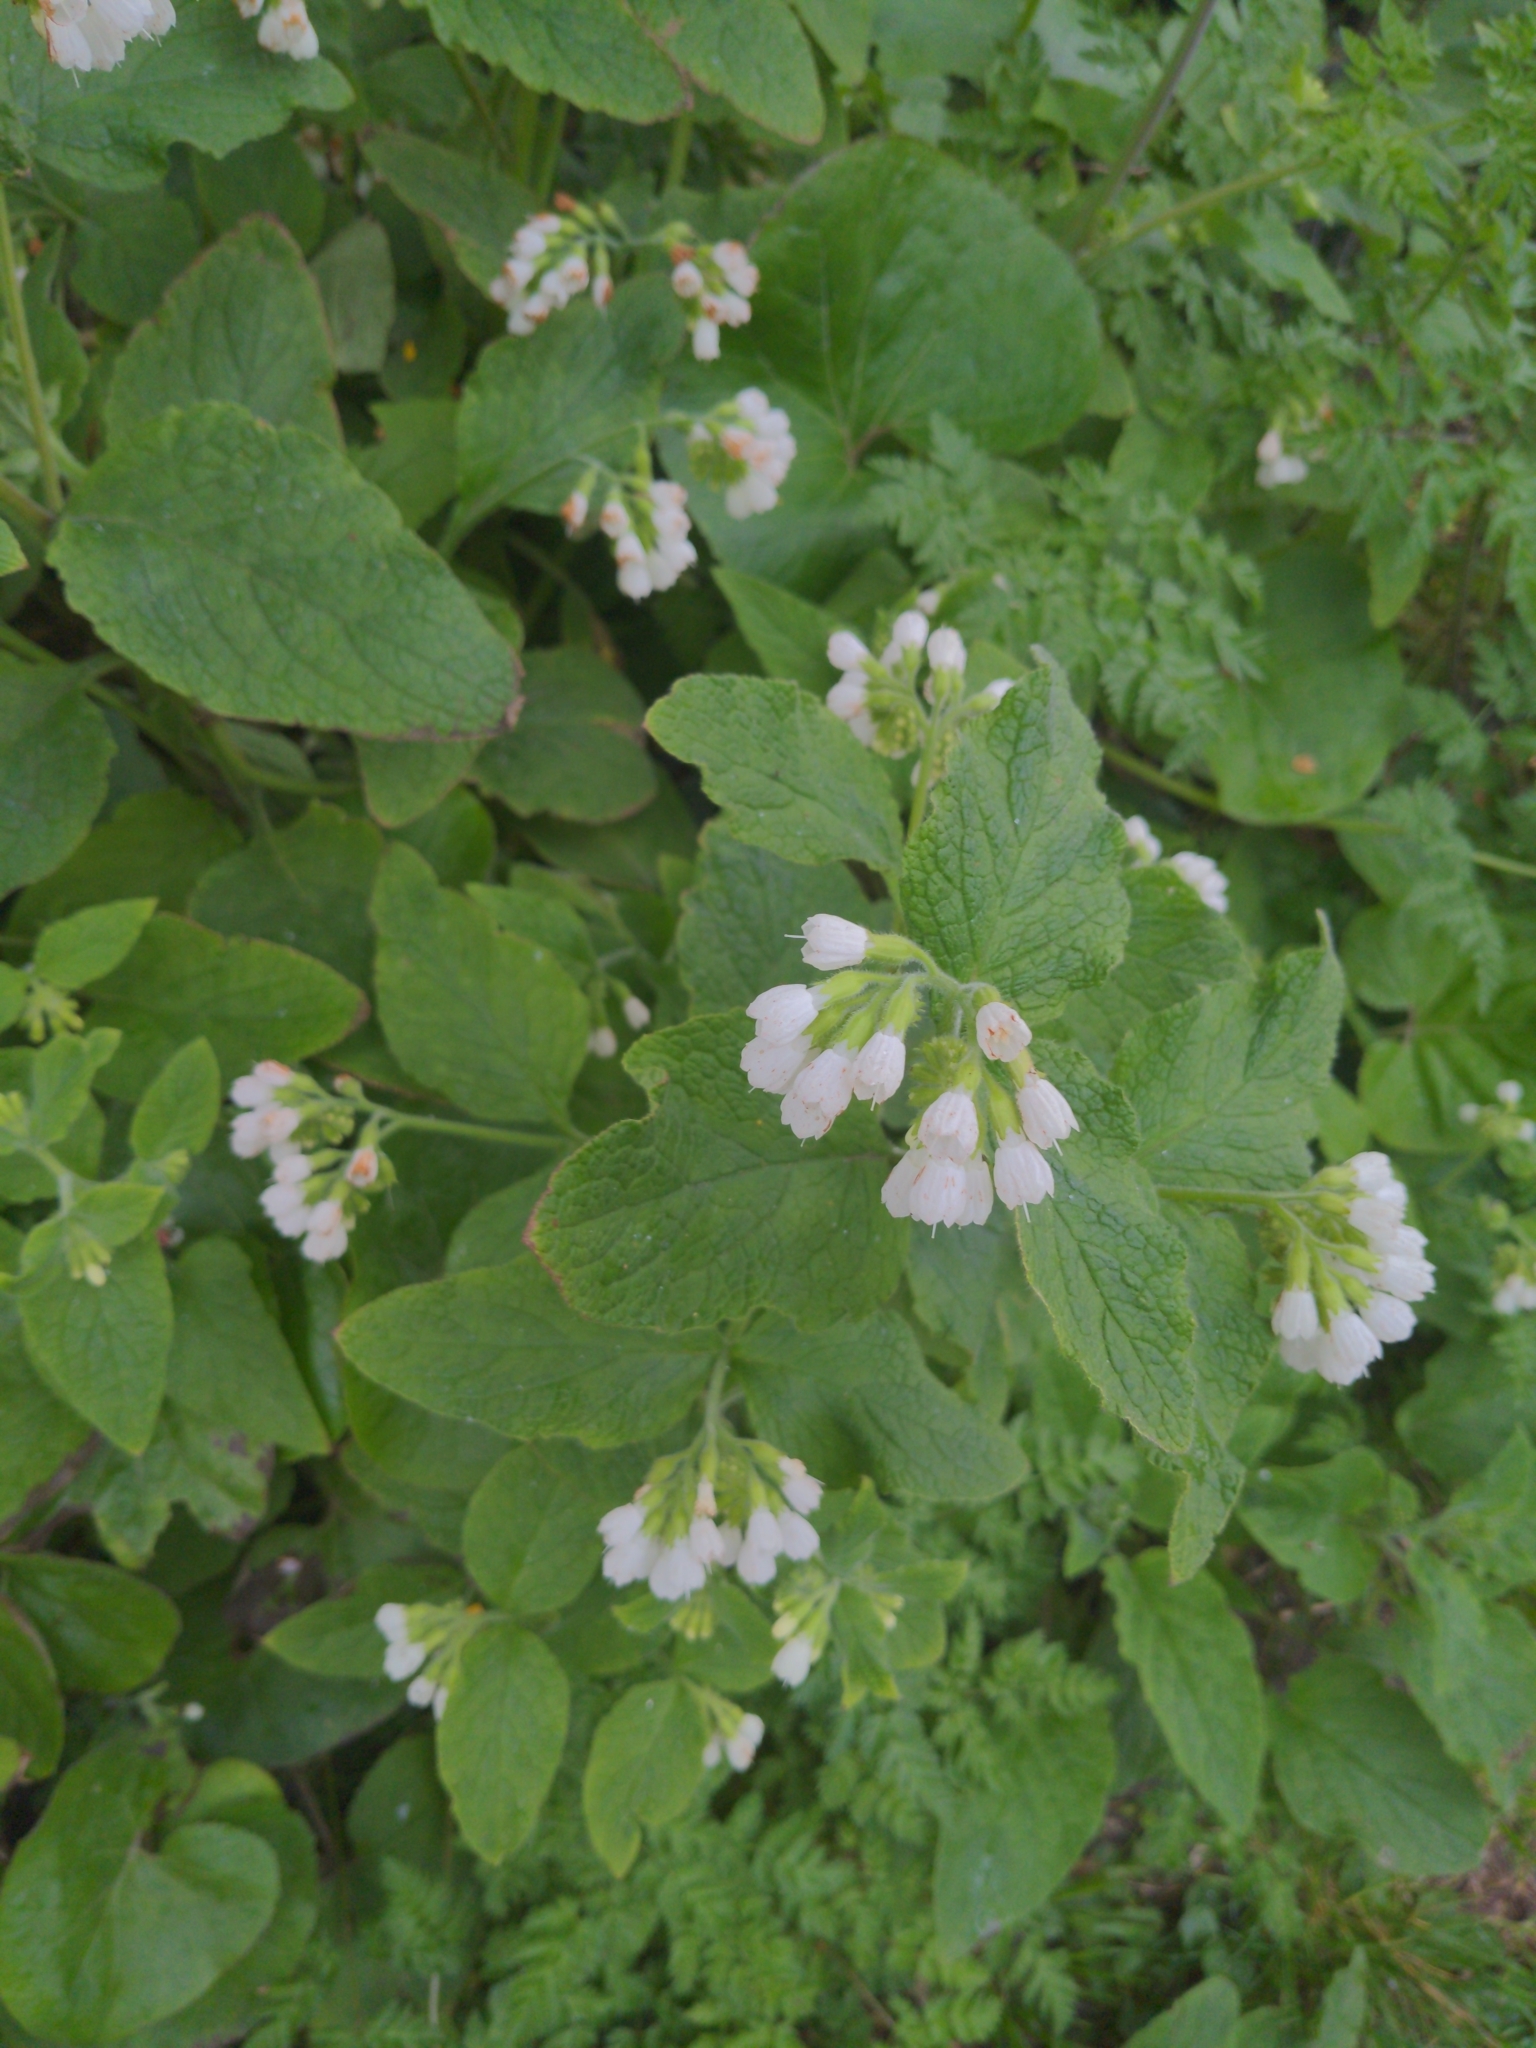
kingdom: Plantae
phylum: Tracheophyta
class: Magnoliopsida
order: Boraginales
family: Boraginaceae
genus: Symphytum
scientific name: Symphytum orientale
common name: White comfrey
